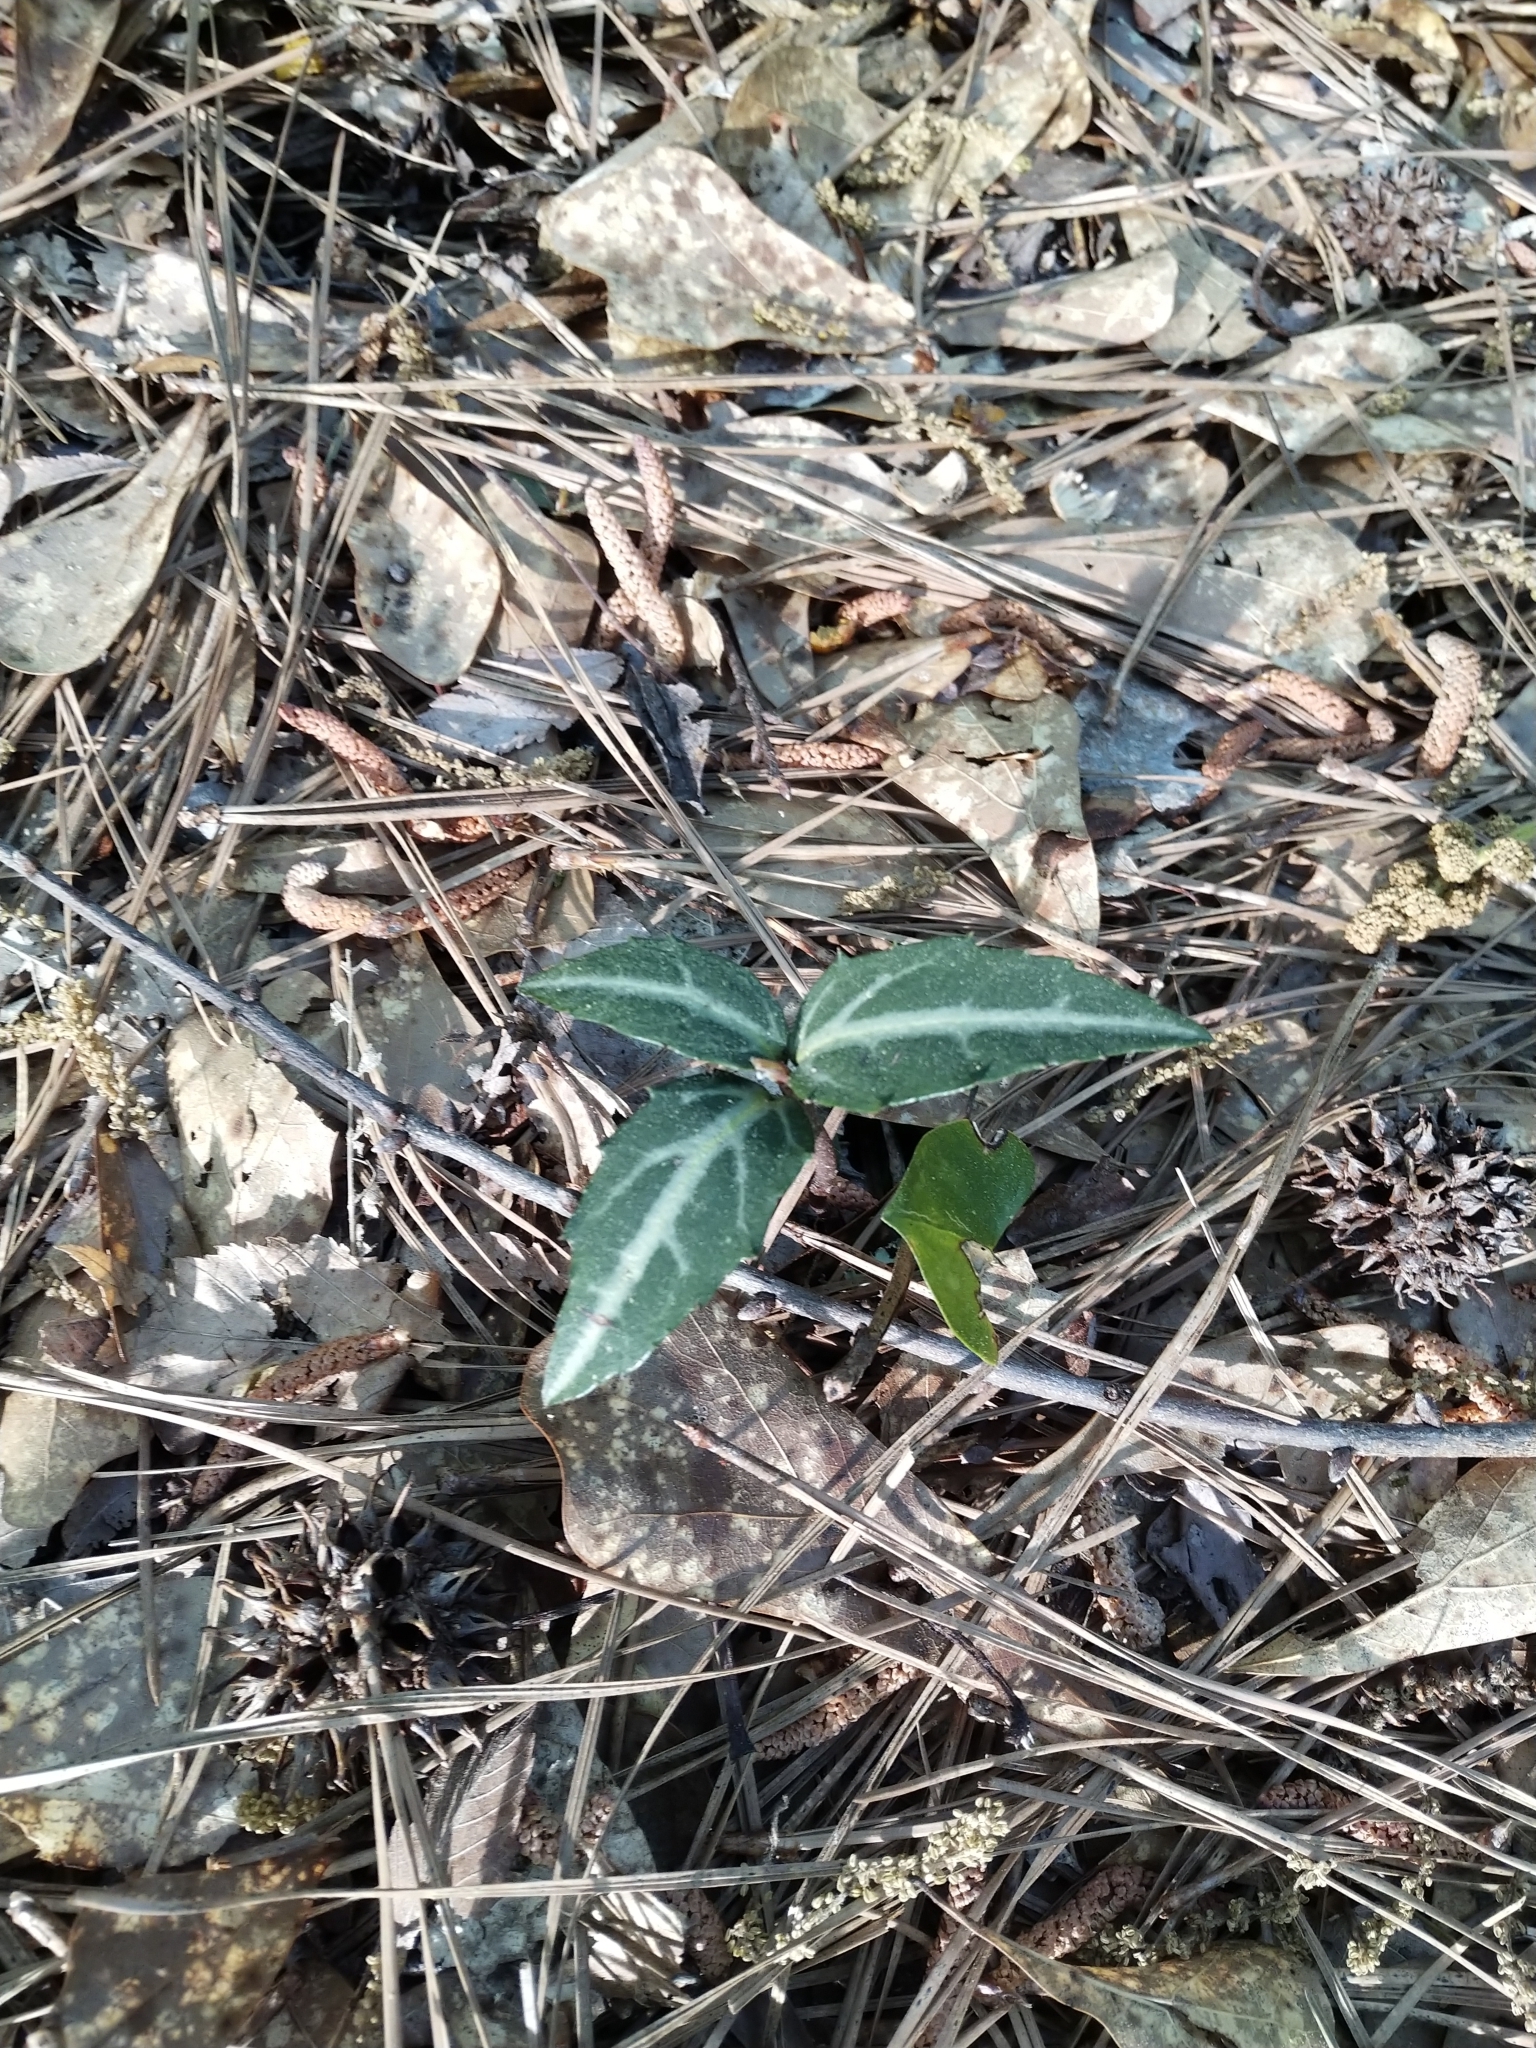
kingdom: Plantae
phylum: Tracheophyta
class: Magnoliopsida
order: Ericales
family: Ericaceae
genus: Chimaphila
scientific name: Chimaphila maculata
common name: Spotted pipsissewa
